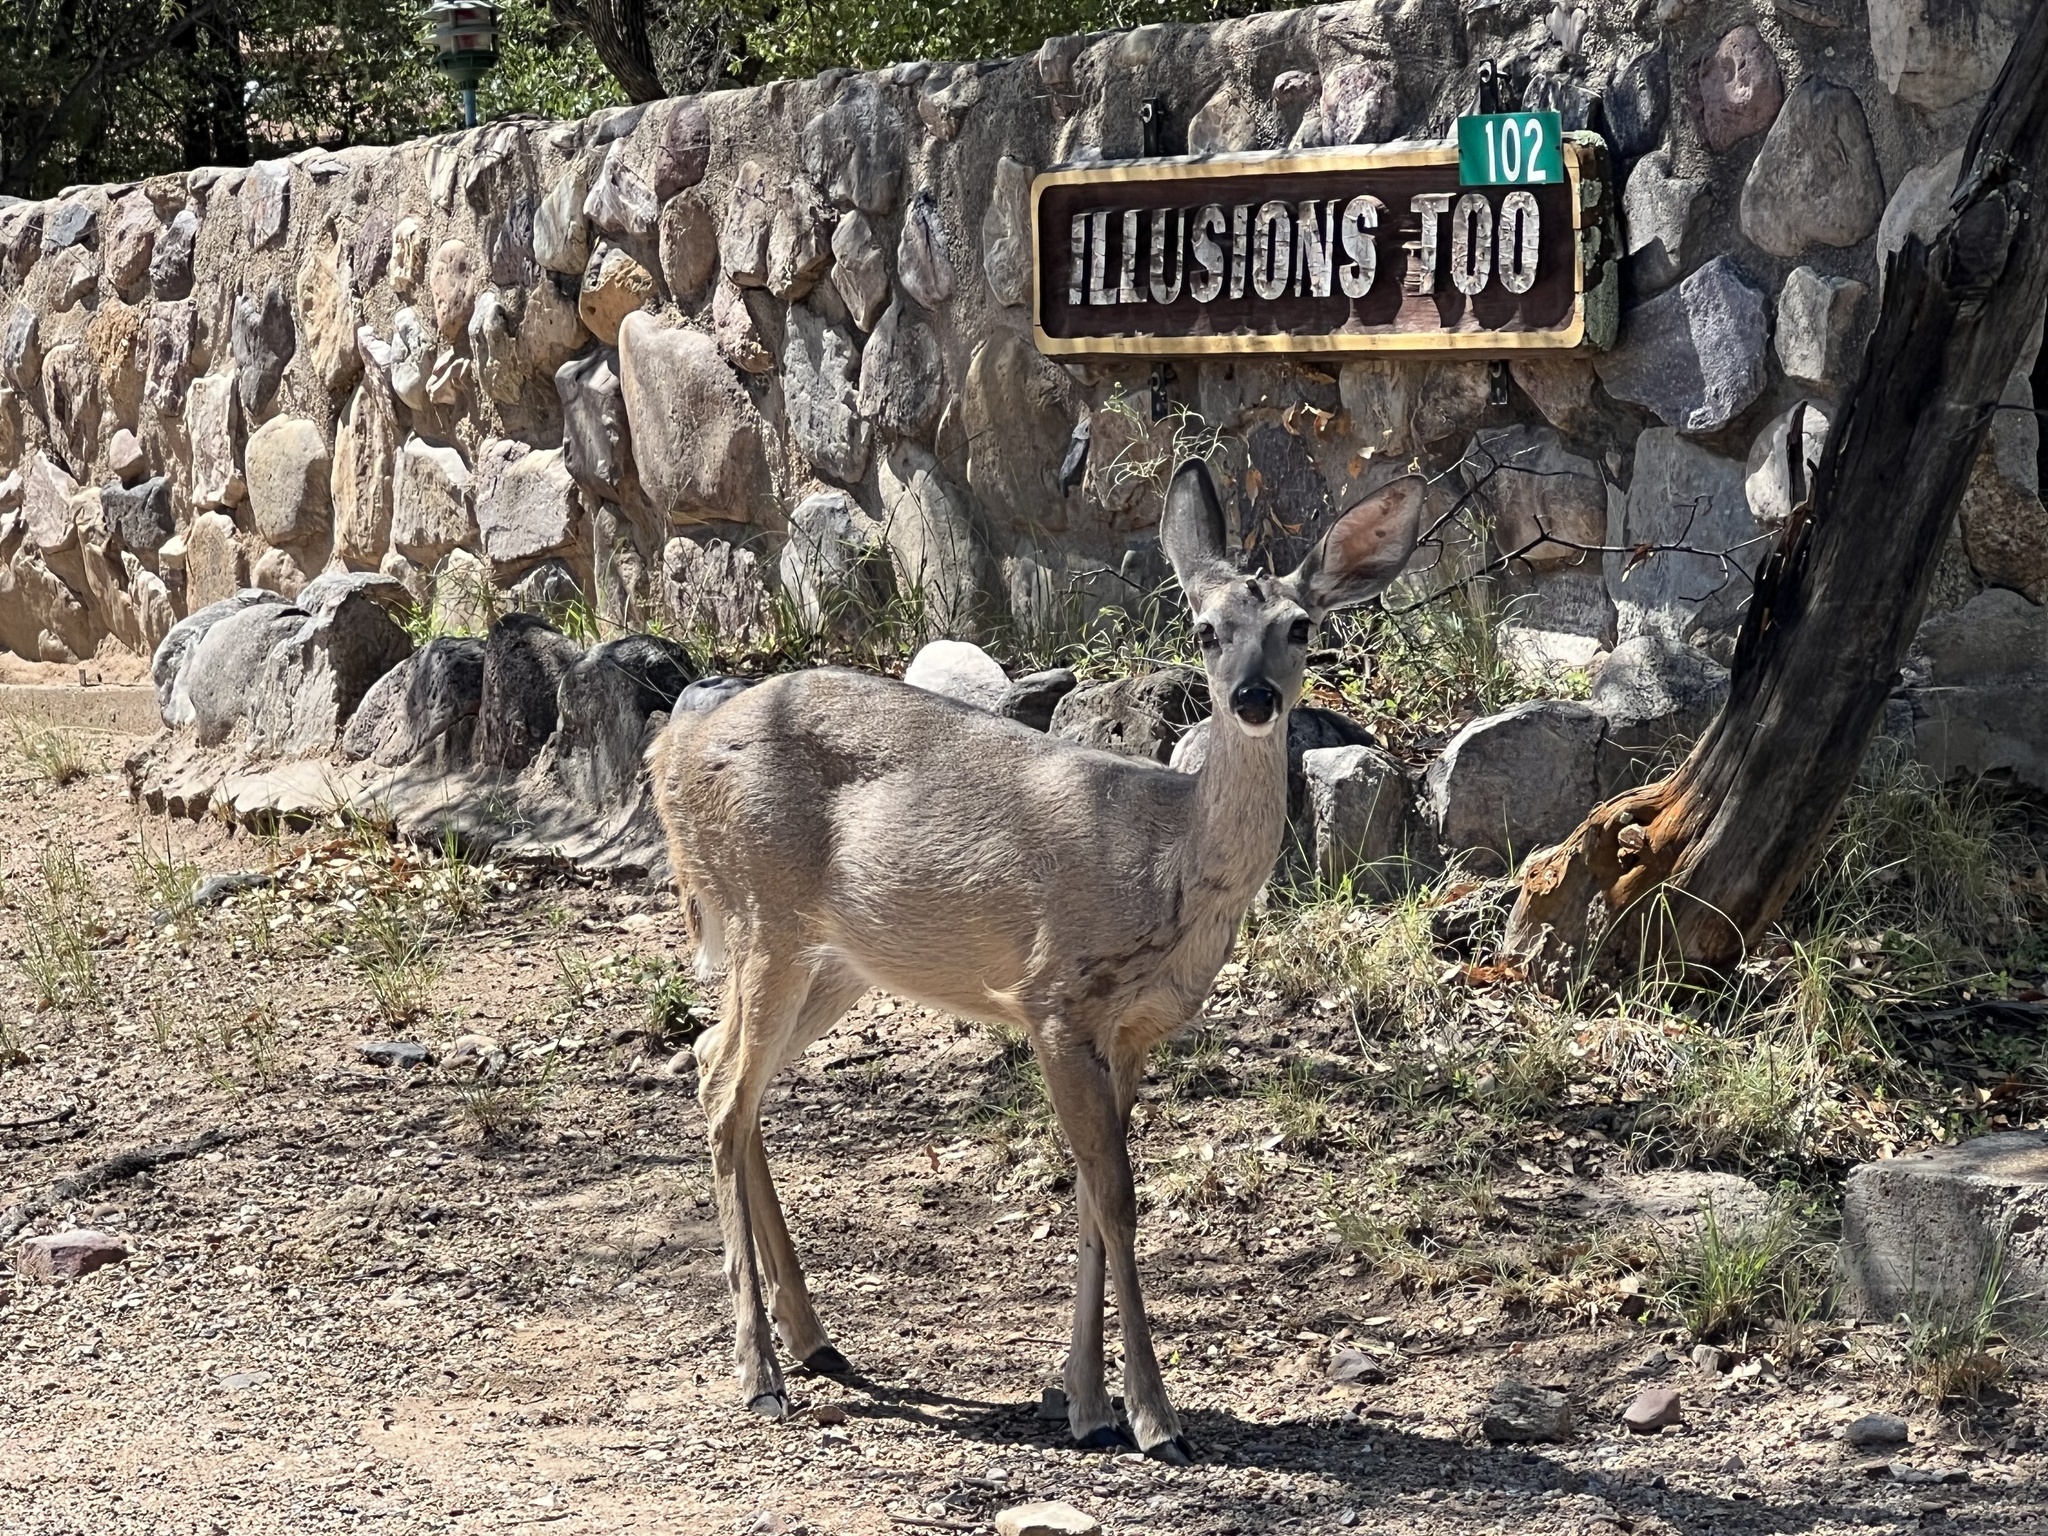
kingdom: Animalia
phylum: Chordata
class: Mammalia
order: Artiodactyla
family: Cervidae
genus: Odocoileus
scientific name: Odocoileus virginianus
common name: White-tailed deer
